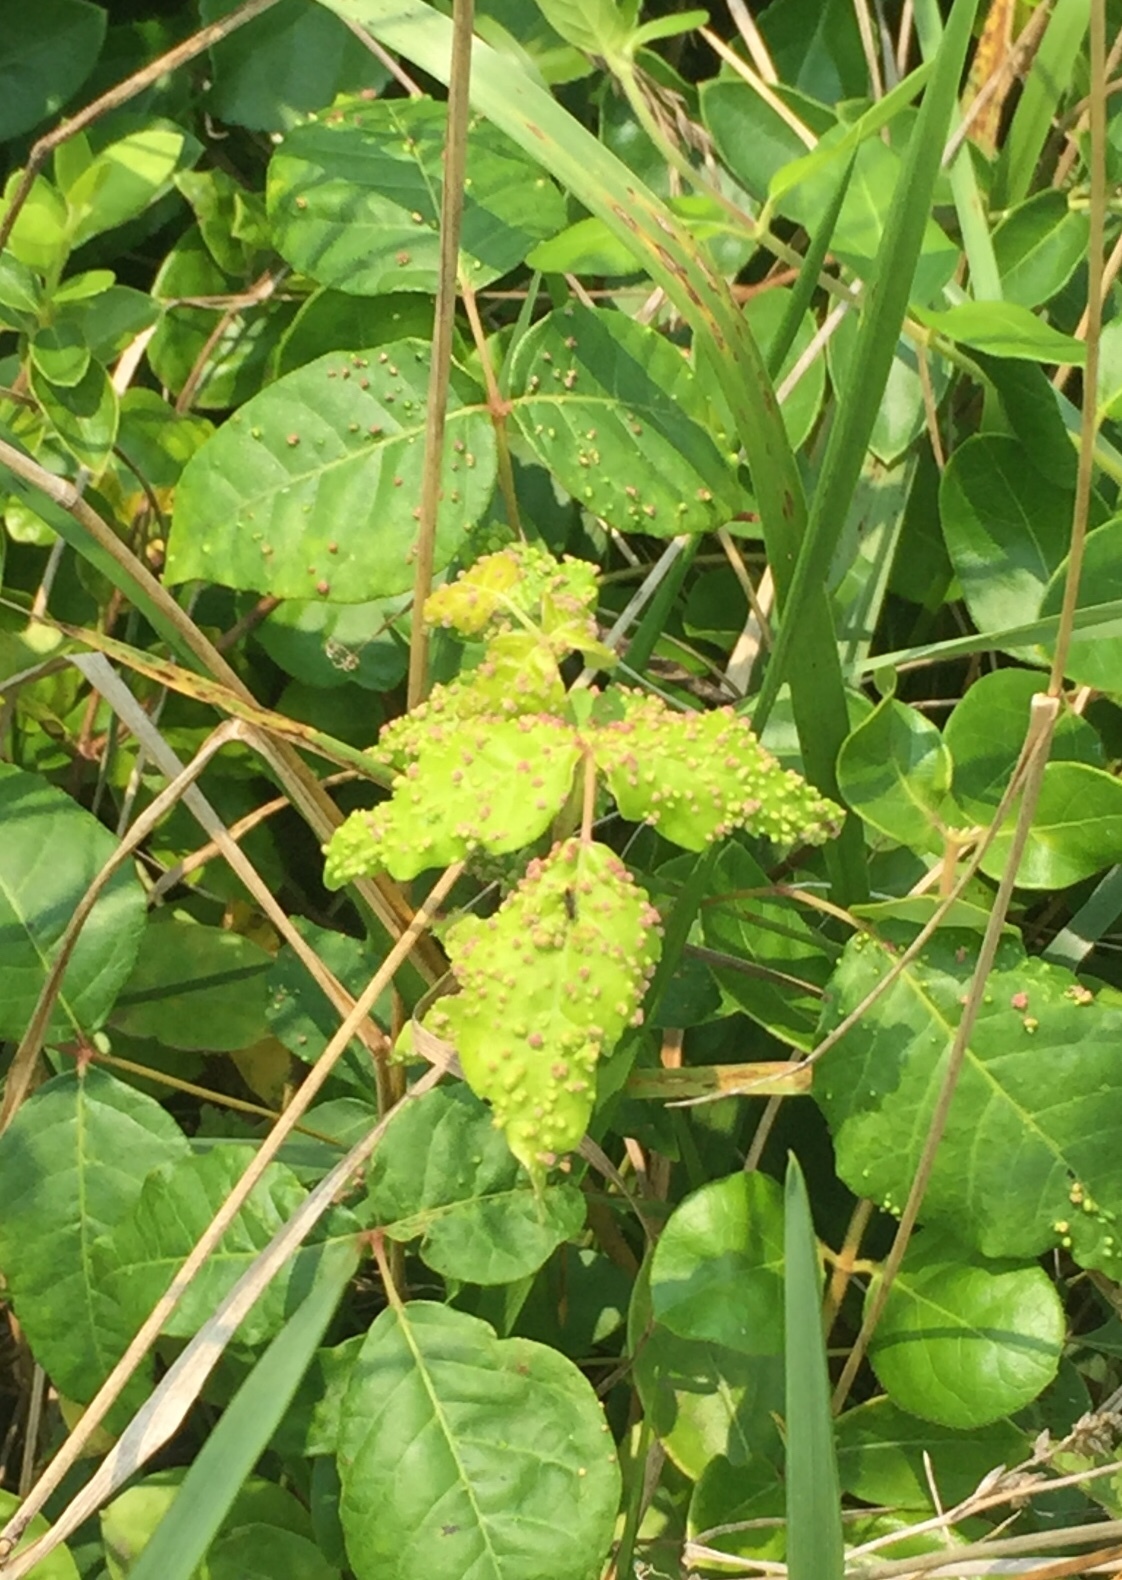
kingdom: Animalia
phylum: Arthropoda
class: Arachnida
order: Trombidiformes
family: Eriophyidae
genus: Aculops
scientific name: Aculops
